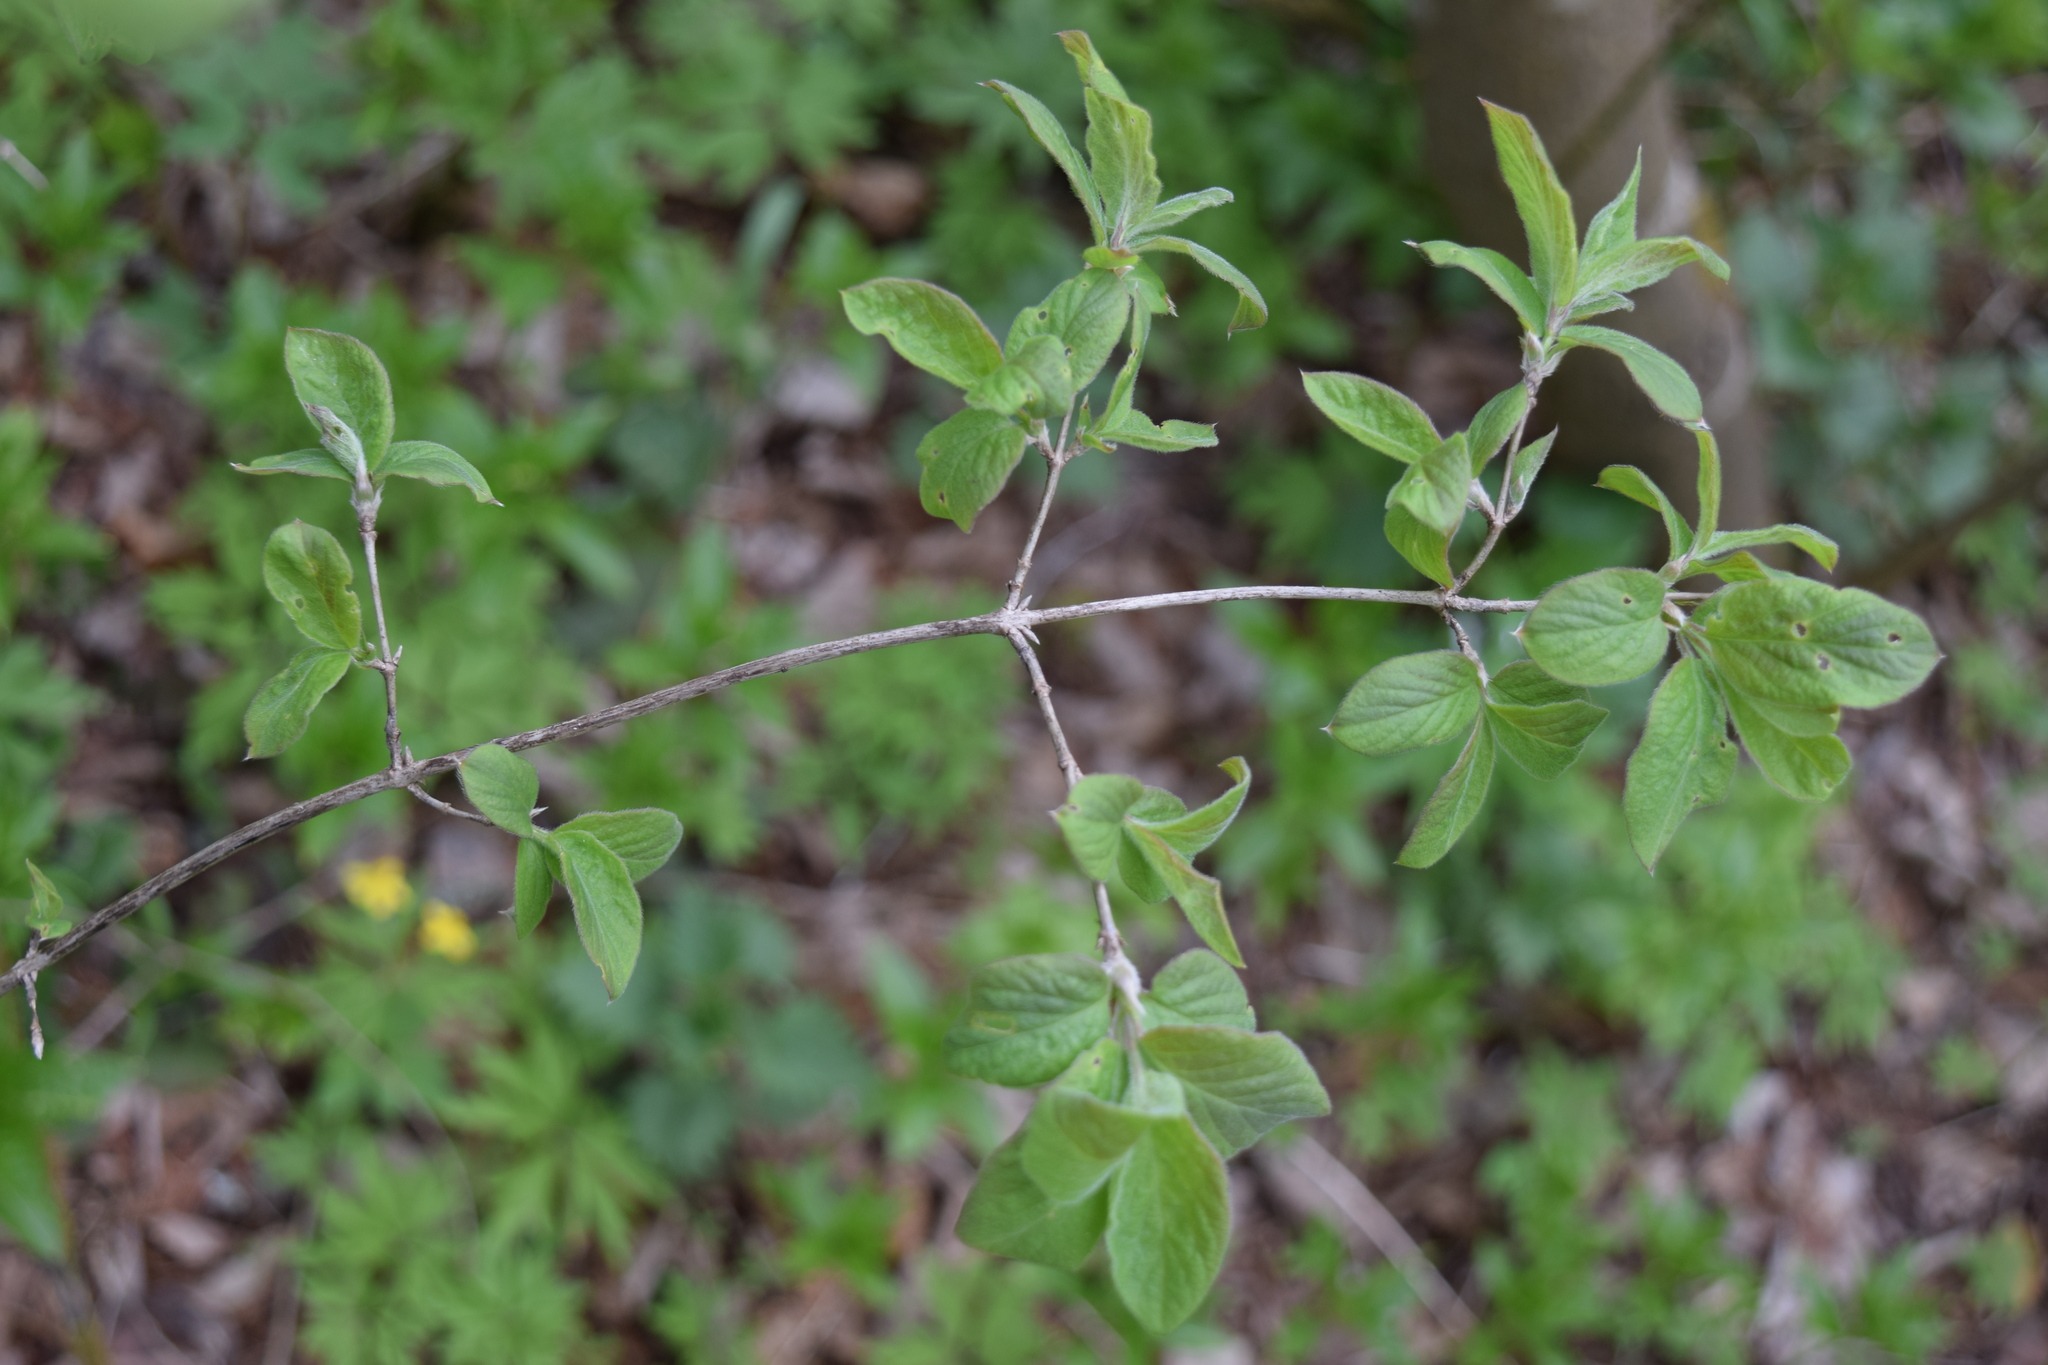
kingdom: Plantae
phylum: Tracheophyta
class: Magnoliopsida
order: Dipsacales
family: Caprifoliaceae
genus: Lonicera
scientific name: Lonicera xylosteum
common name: Fly honeysuckle
